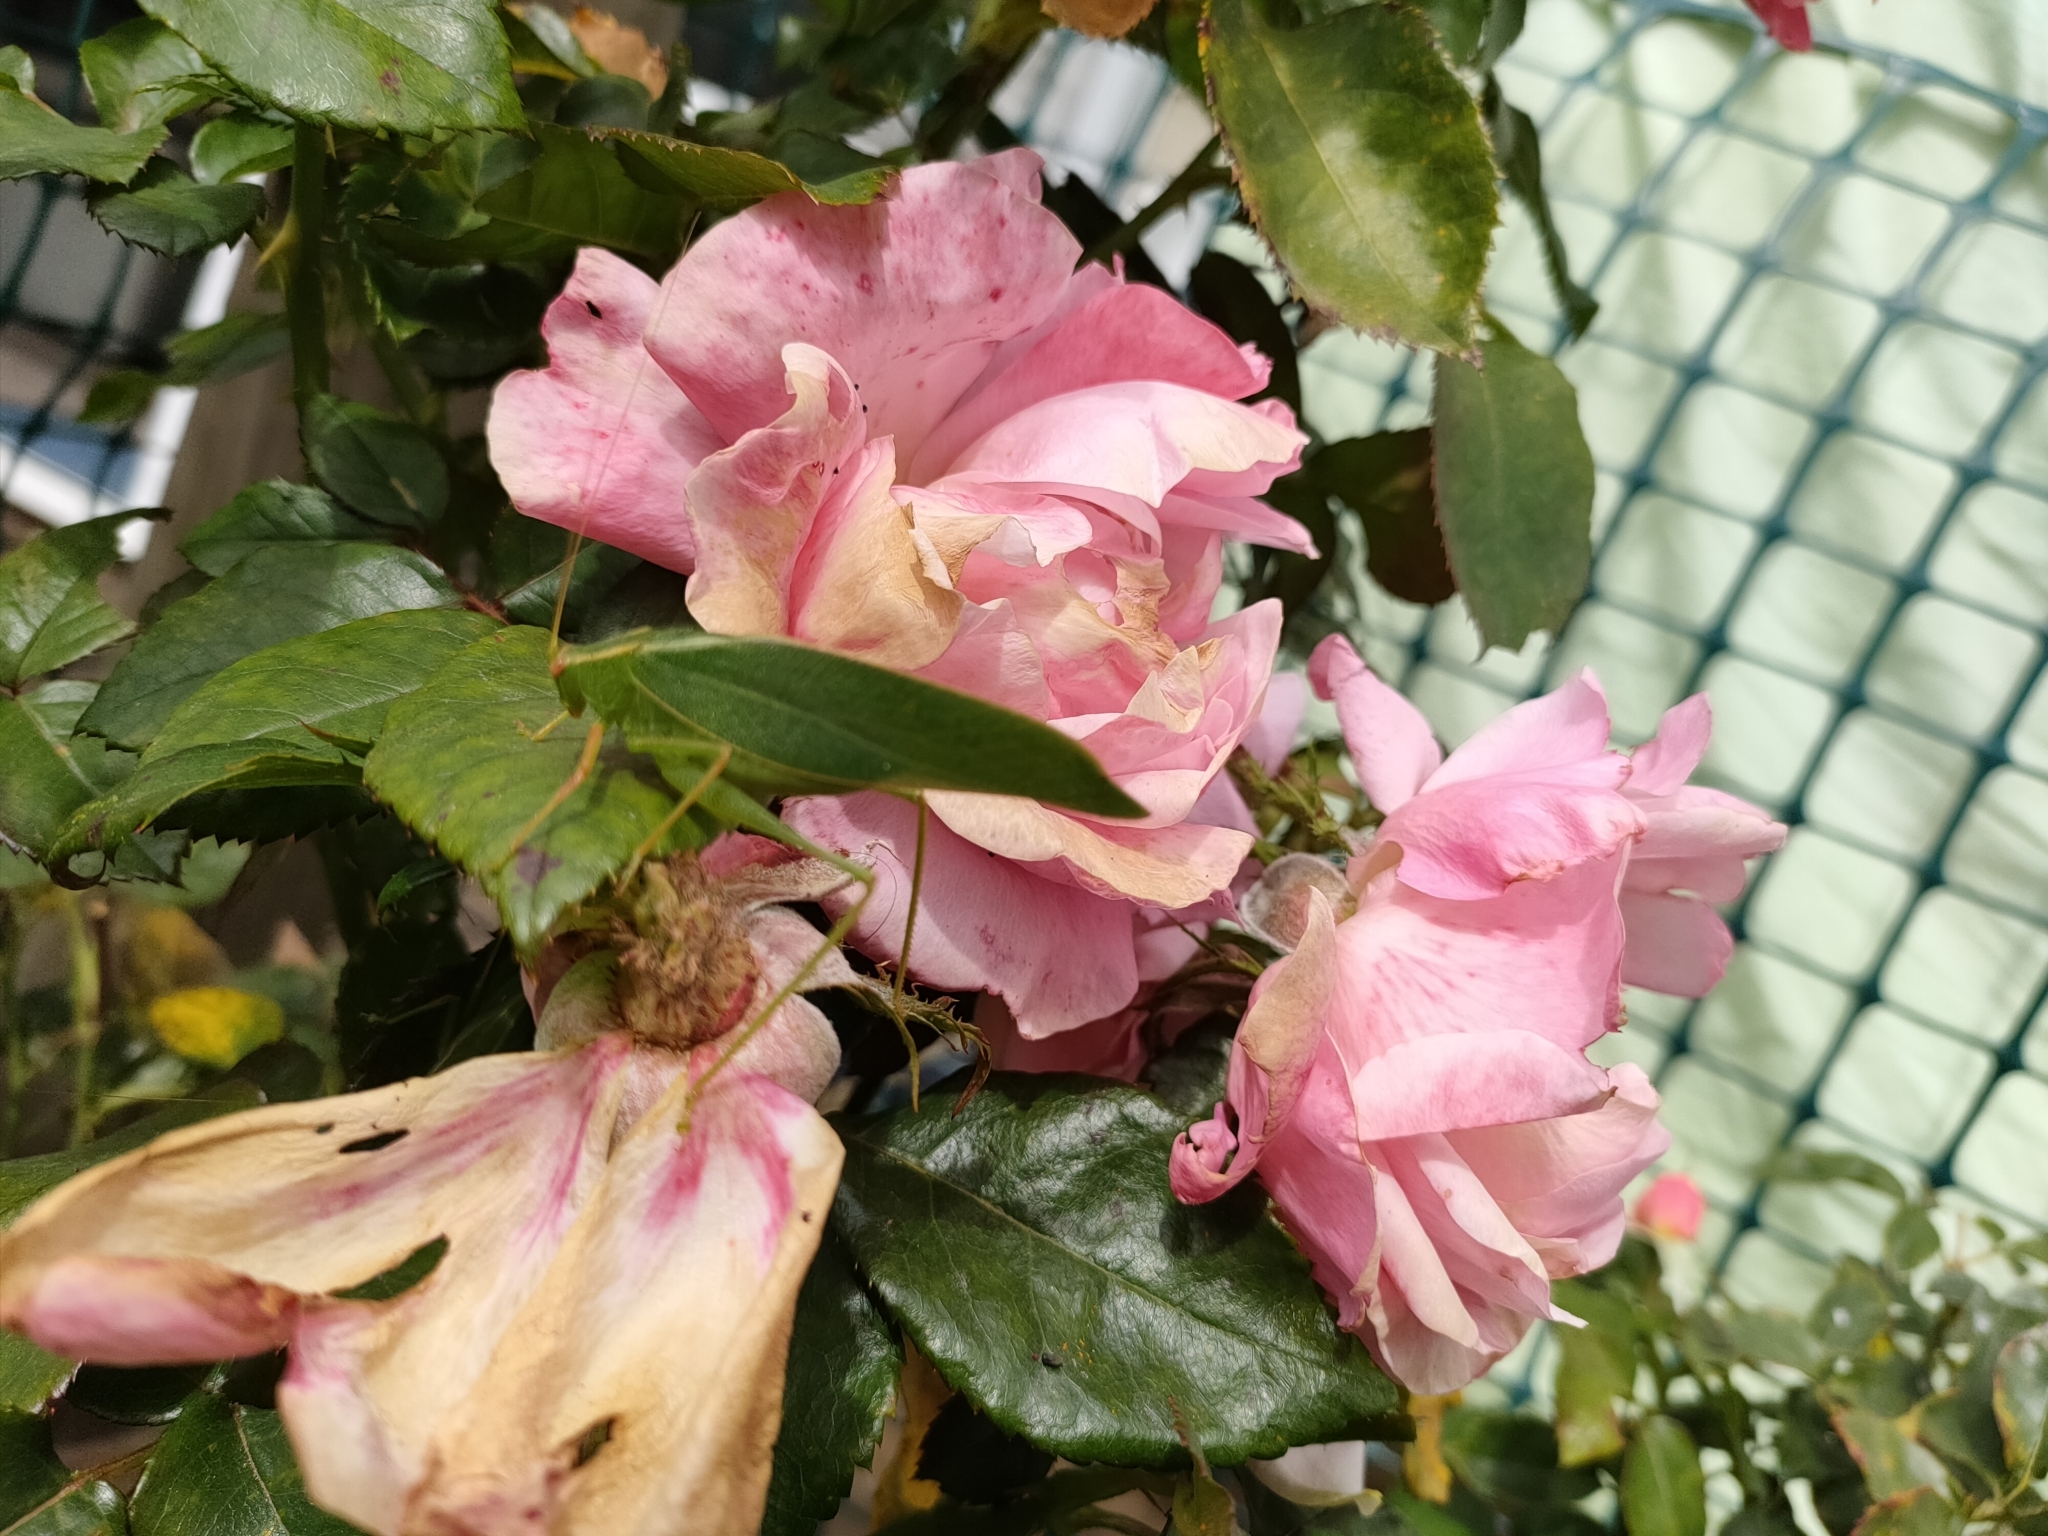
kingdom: Animalia
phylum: Arthropoda
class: Insecta
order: Orthoptera
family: Tettigoniidae
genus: Caedicia
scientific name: Caedicia simplex
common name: Common garden katydid
